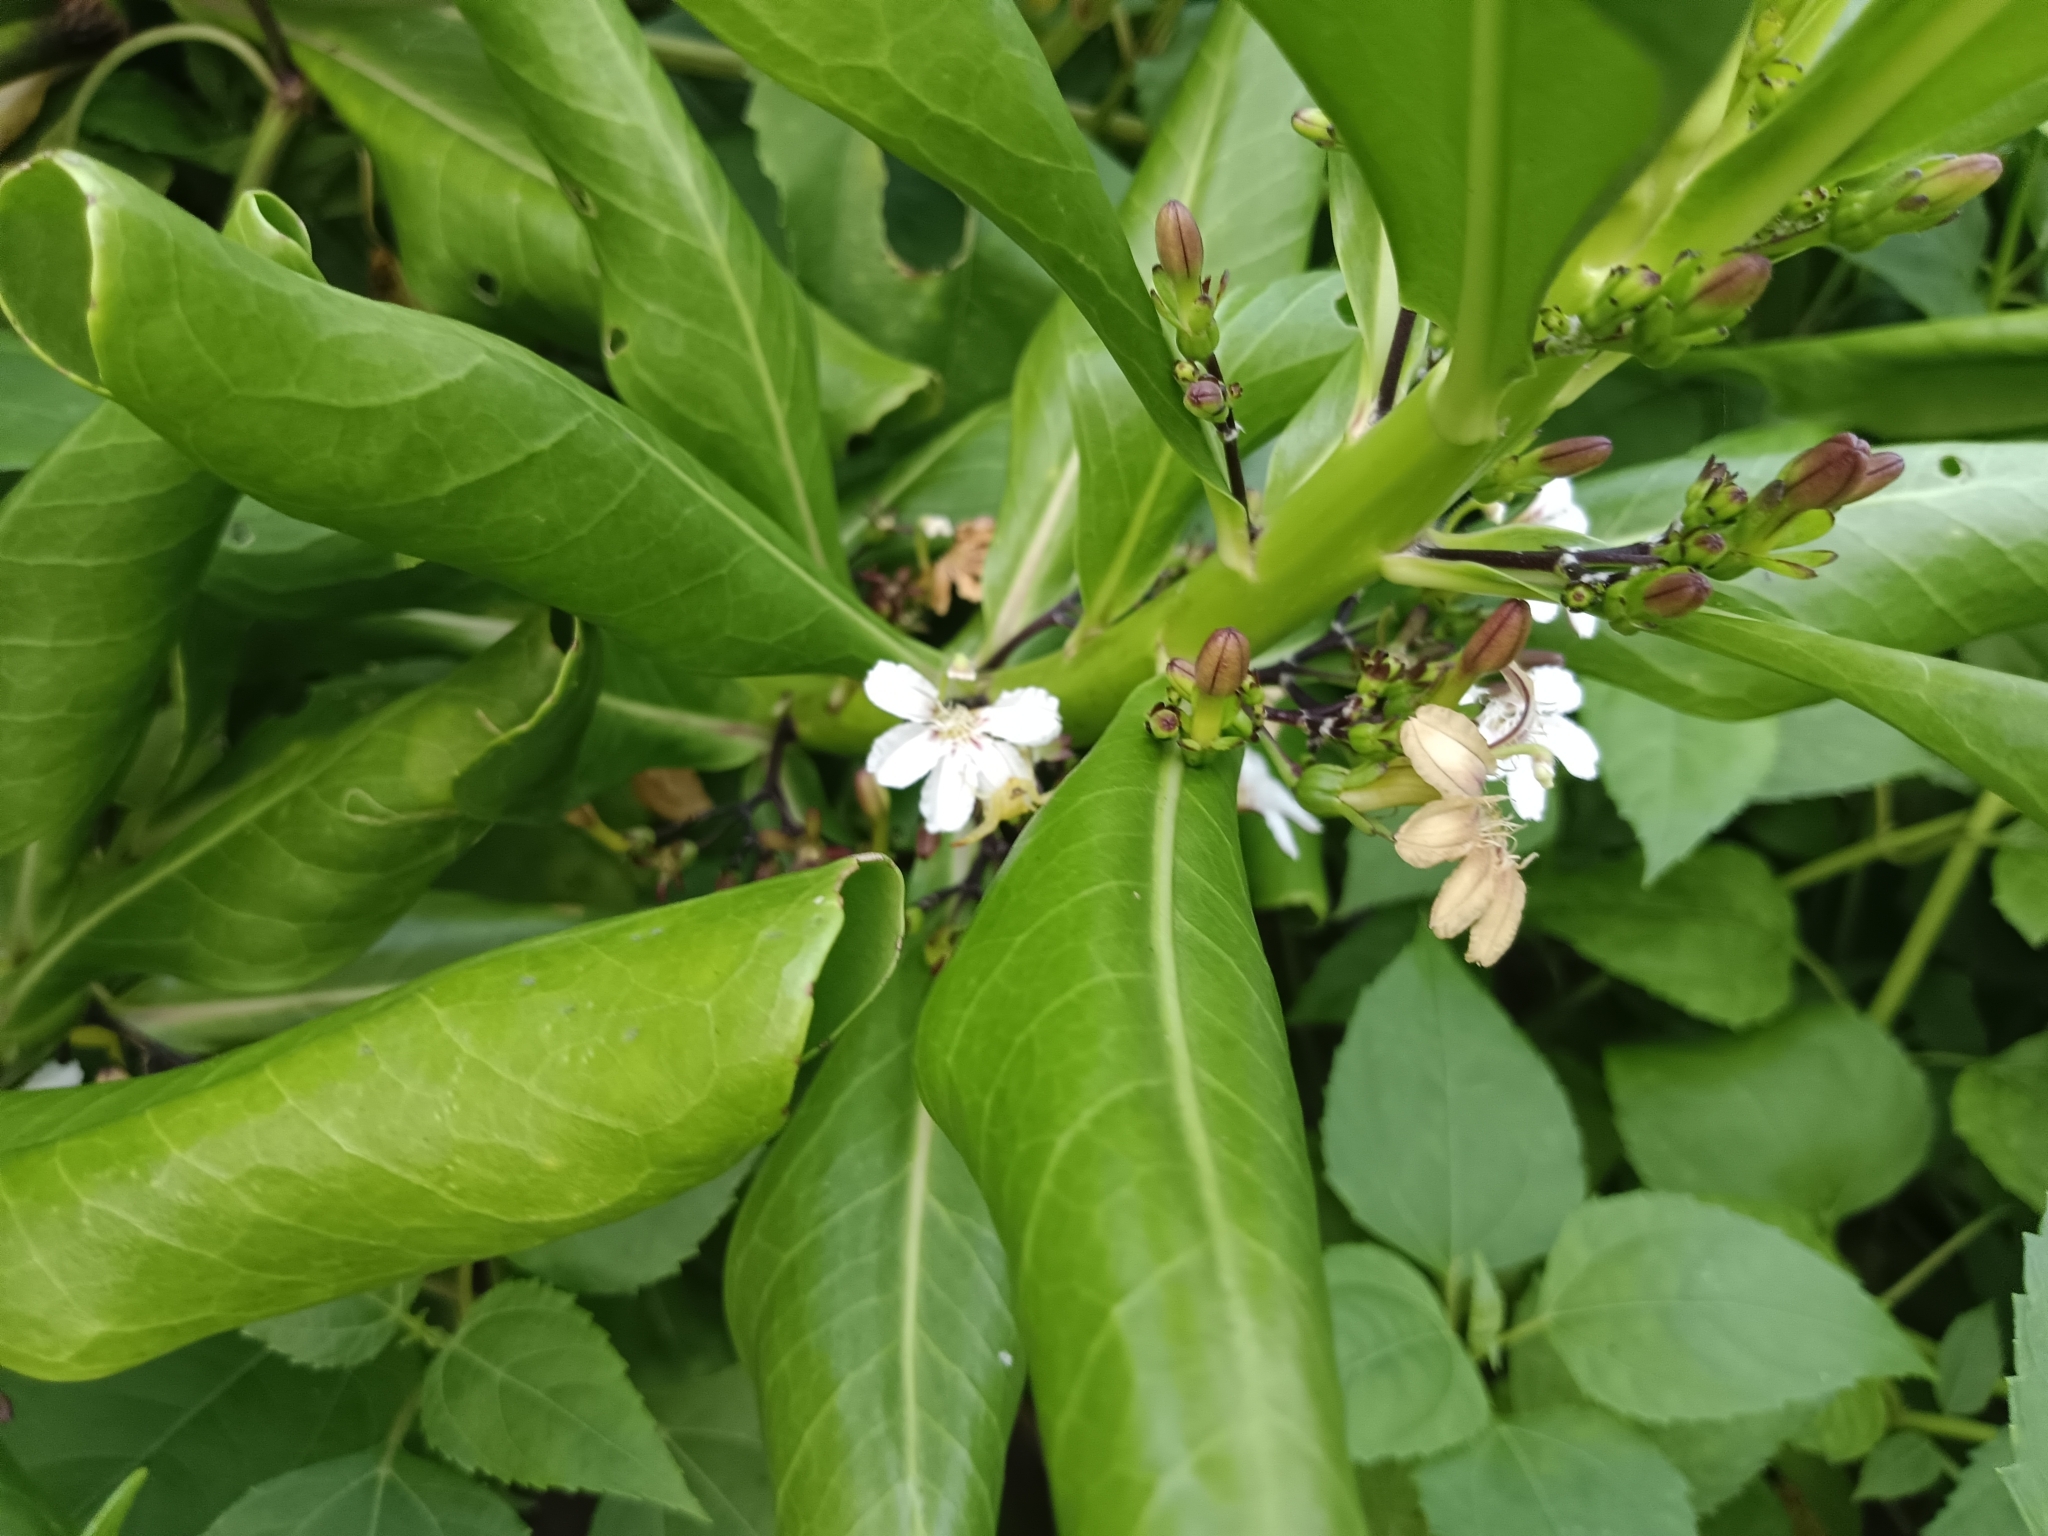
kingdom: Plantae
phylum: Tracheophyta
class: Magnoliopsida
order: Asterales
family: Goodeniaceae
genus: Scaevola
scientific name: Scaevola taccada
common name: Sea lettucetree
